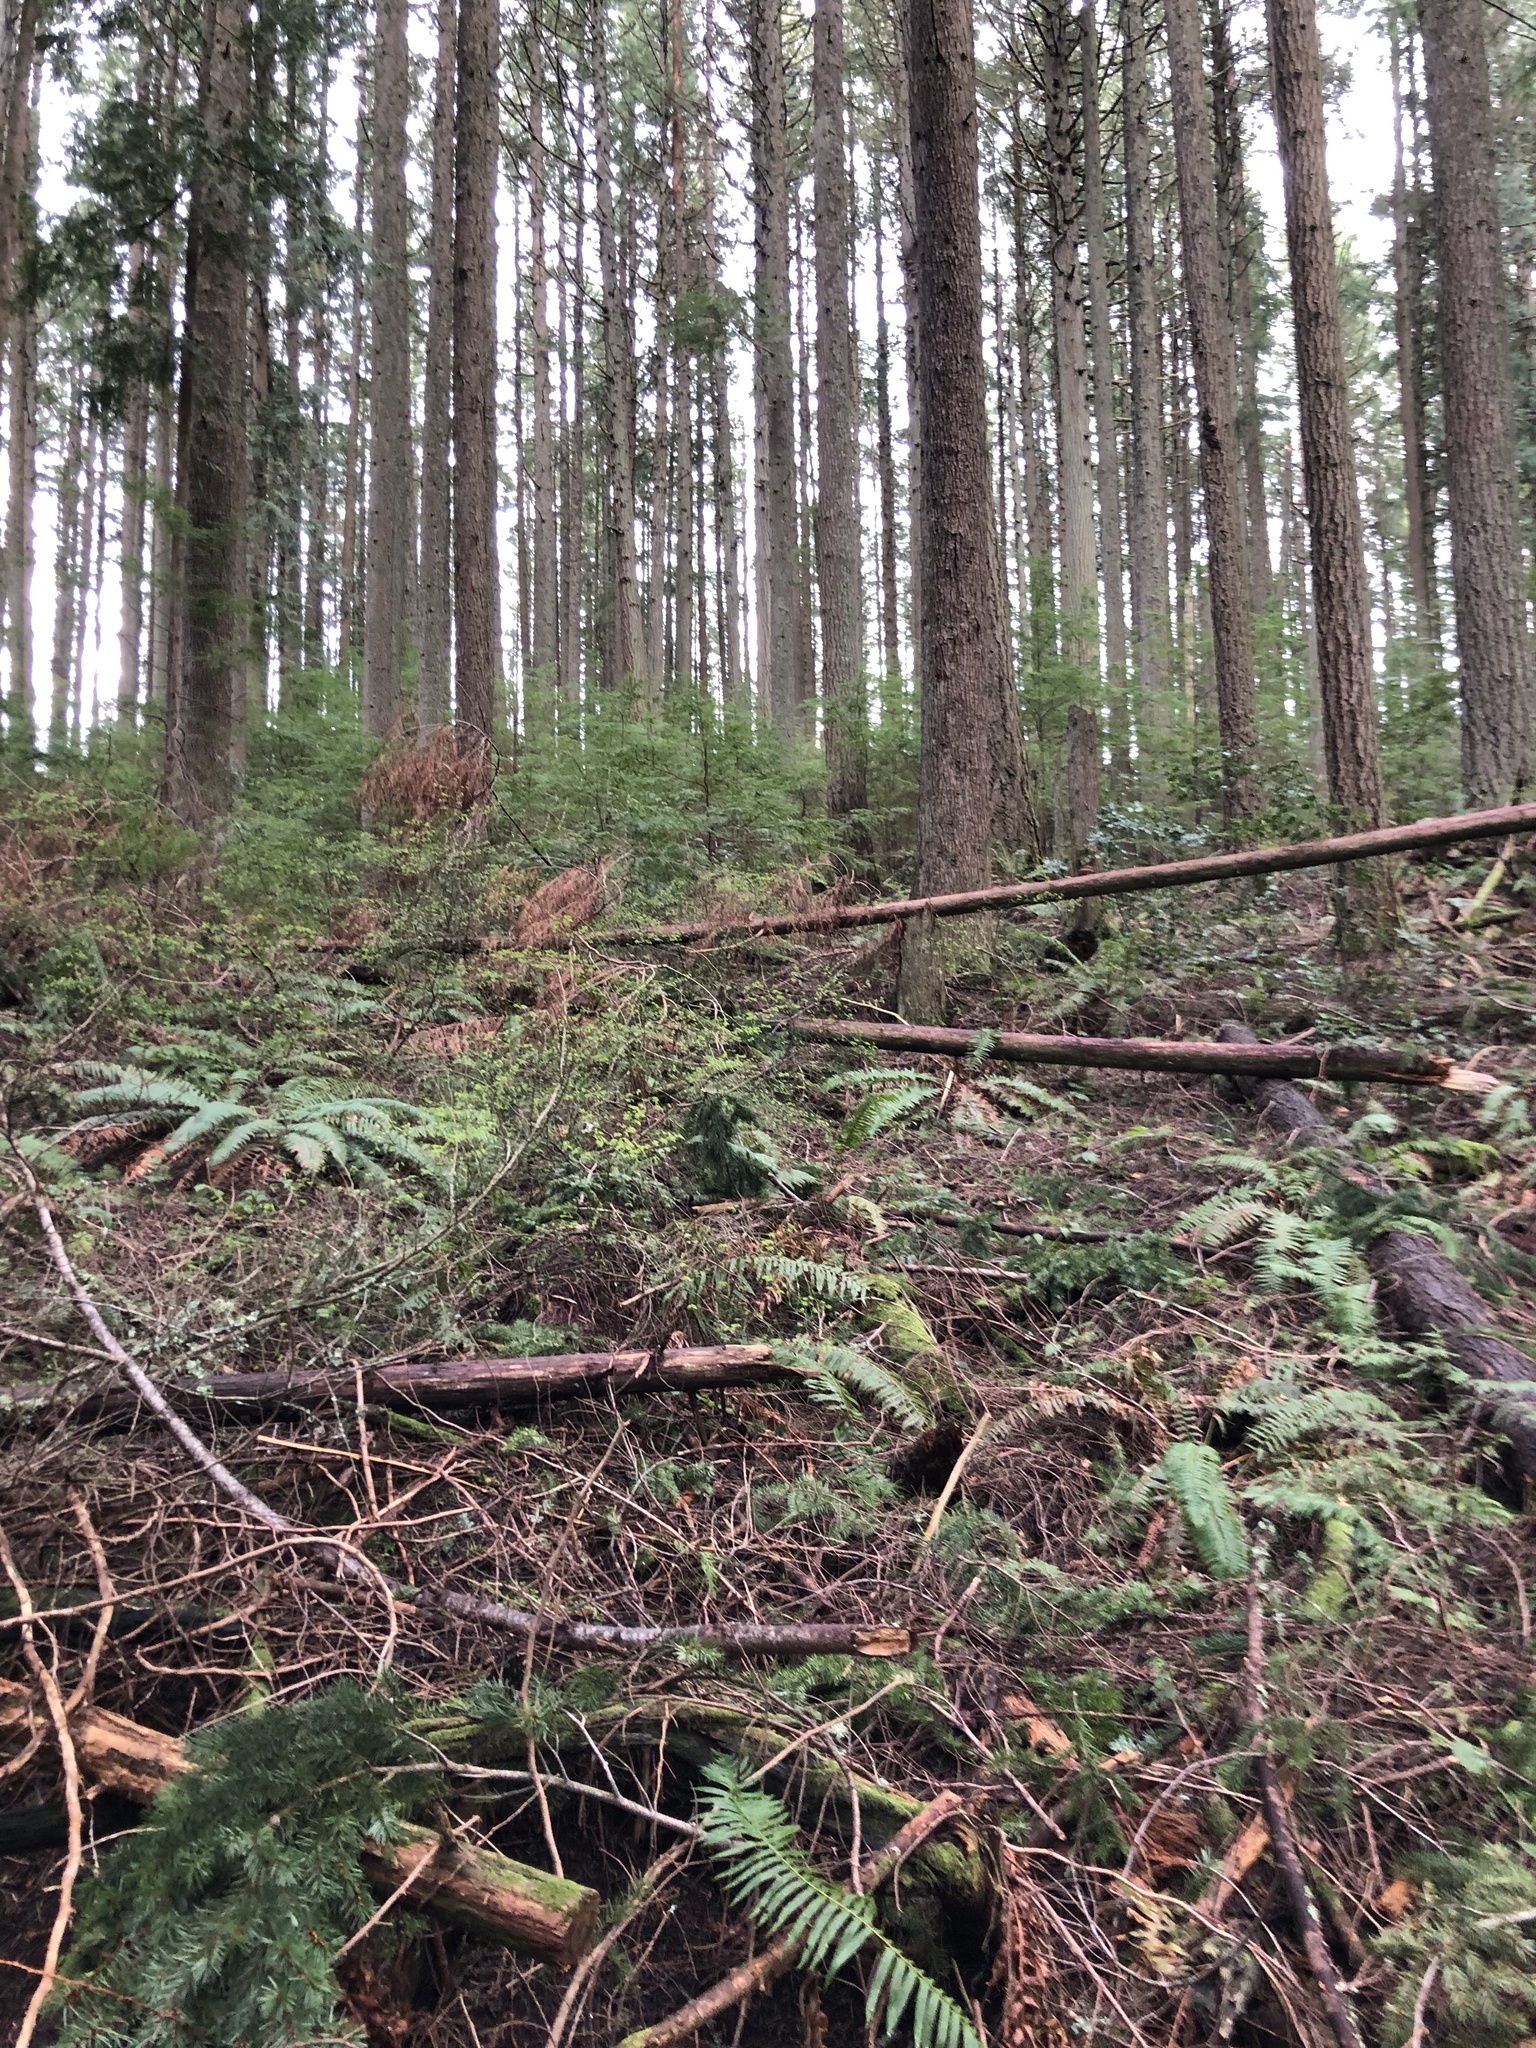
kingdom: Plantae
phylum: Tracheophyta
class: Polypodiopsida
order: Polypodiales
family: Dryopteridaceae
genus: Polystichum
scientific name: Polystichum munitum
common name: Western sword-fern
